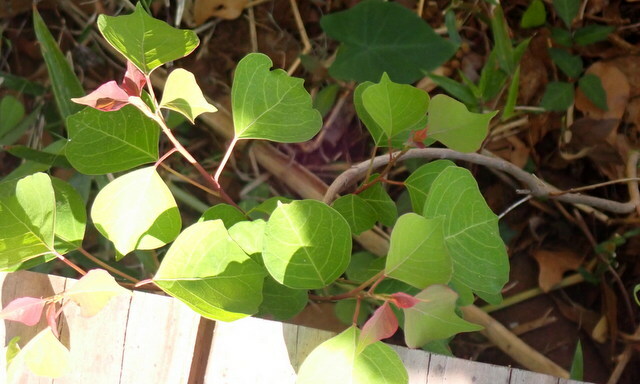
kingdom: Plantae
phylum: Tracheophyta
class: Magnoliopsida
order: Malpighiales
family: Euphorbiaceae
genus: Triadica
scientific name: Triadica sebifera
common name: Chinese tallow
